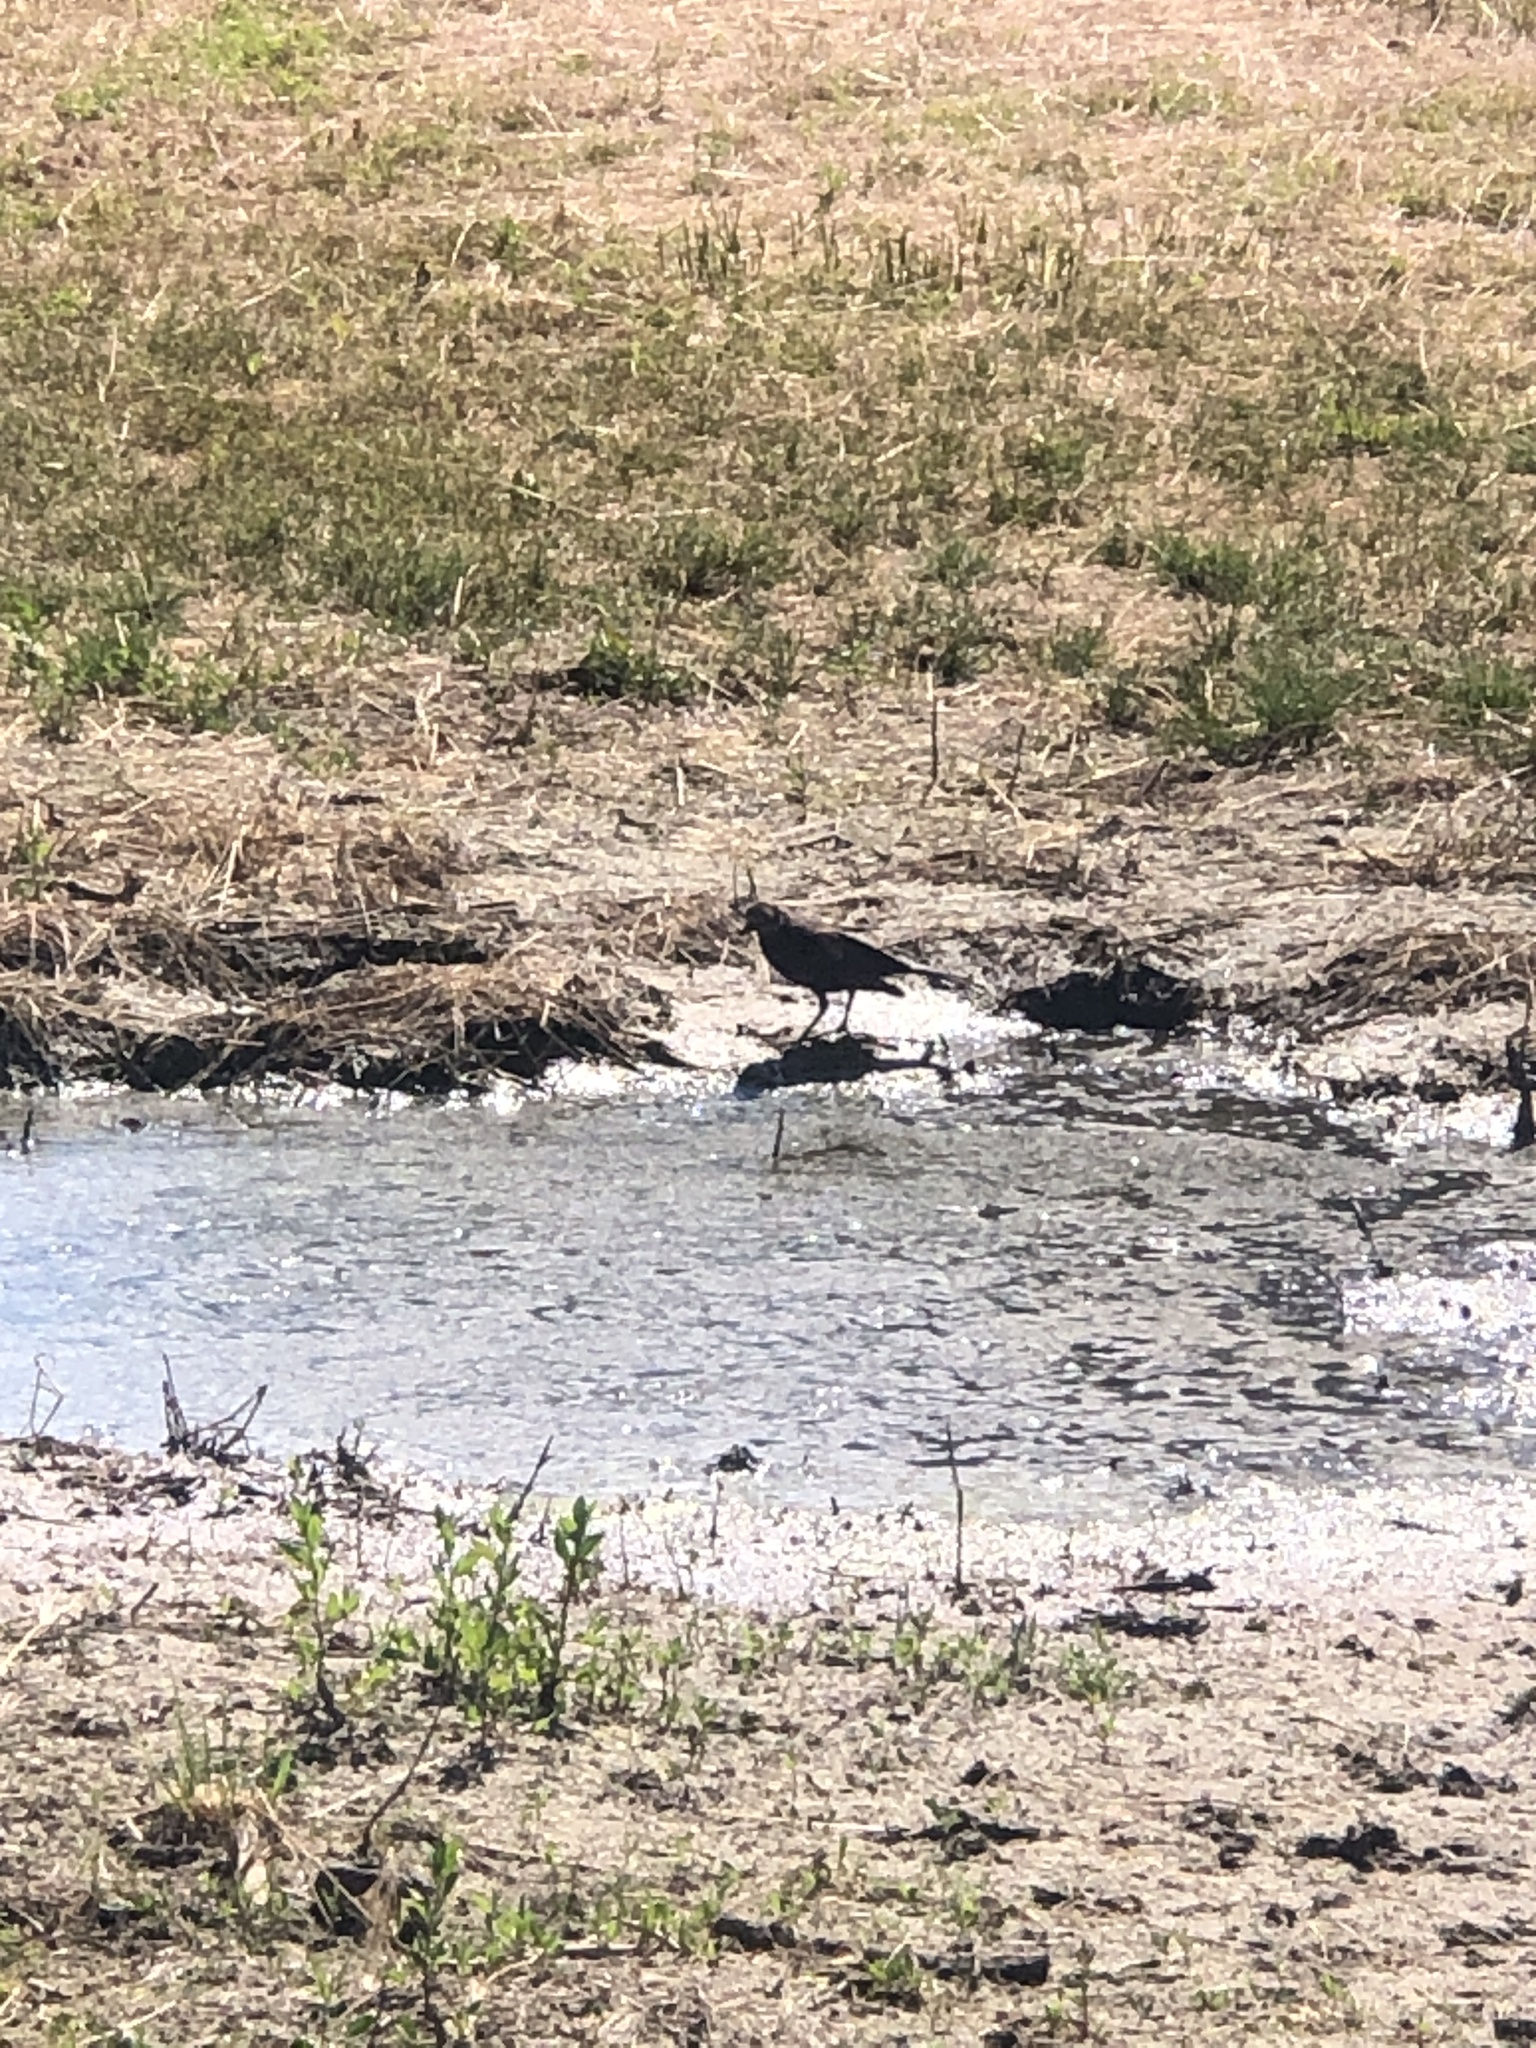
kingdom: Animalia
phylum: Chordata
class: Aves
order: Passeriformes
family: Icteridae
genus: Euphagus
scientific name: Euphagus cyanocephalus
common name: Brewer's blackbird
